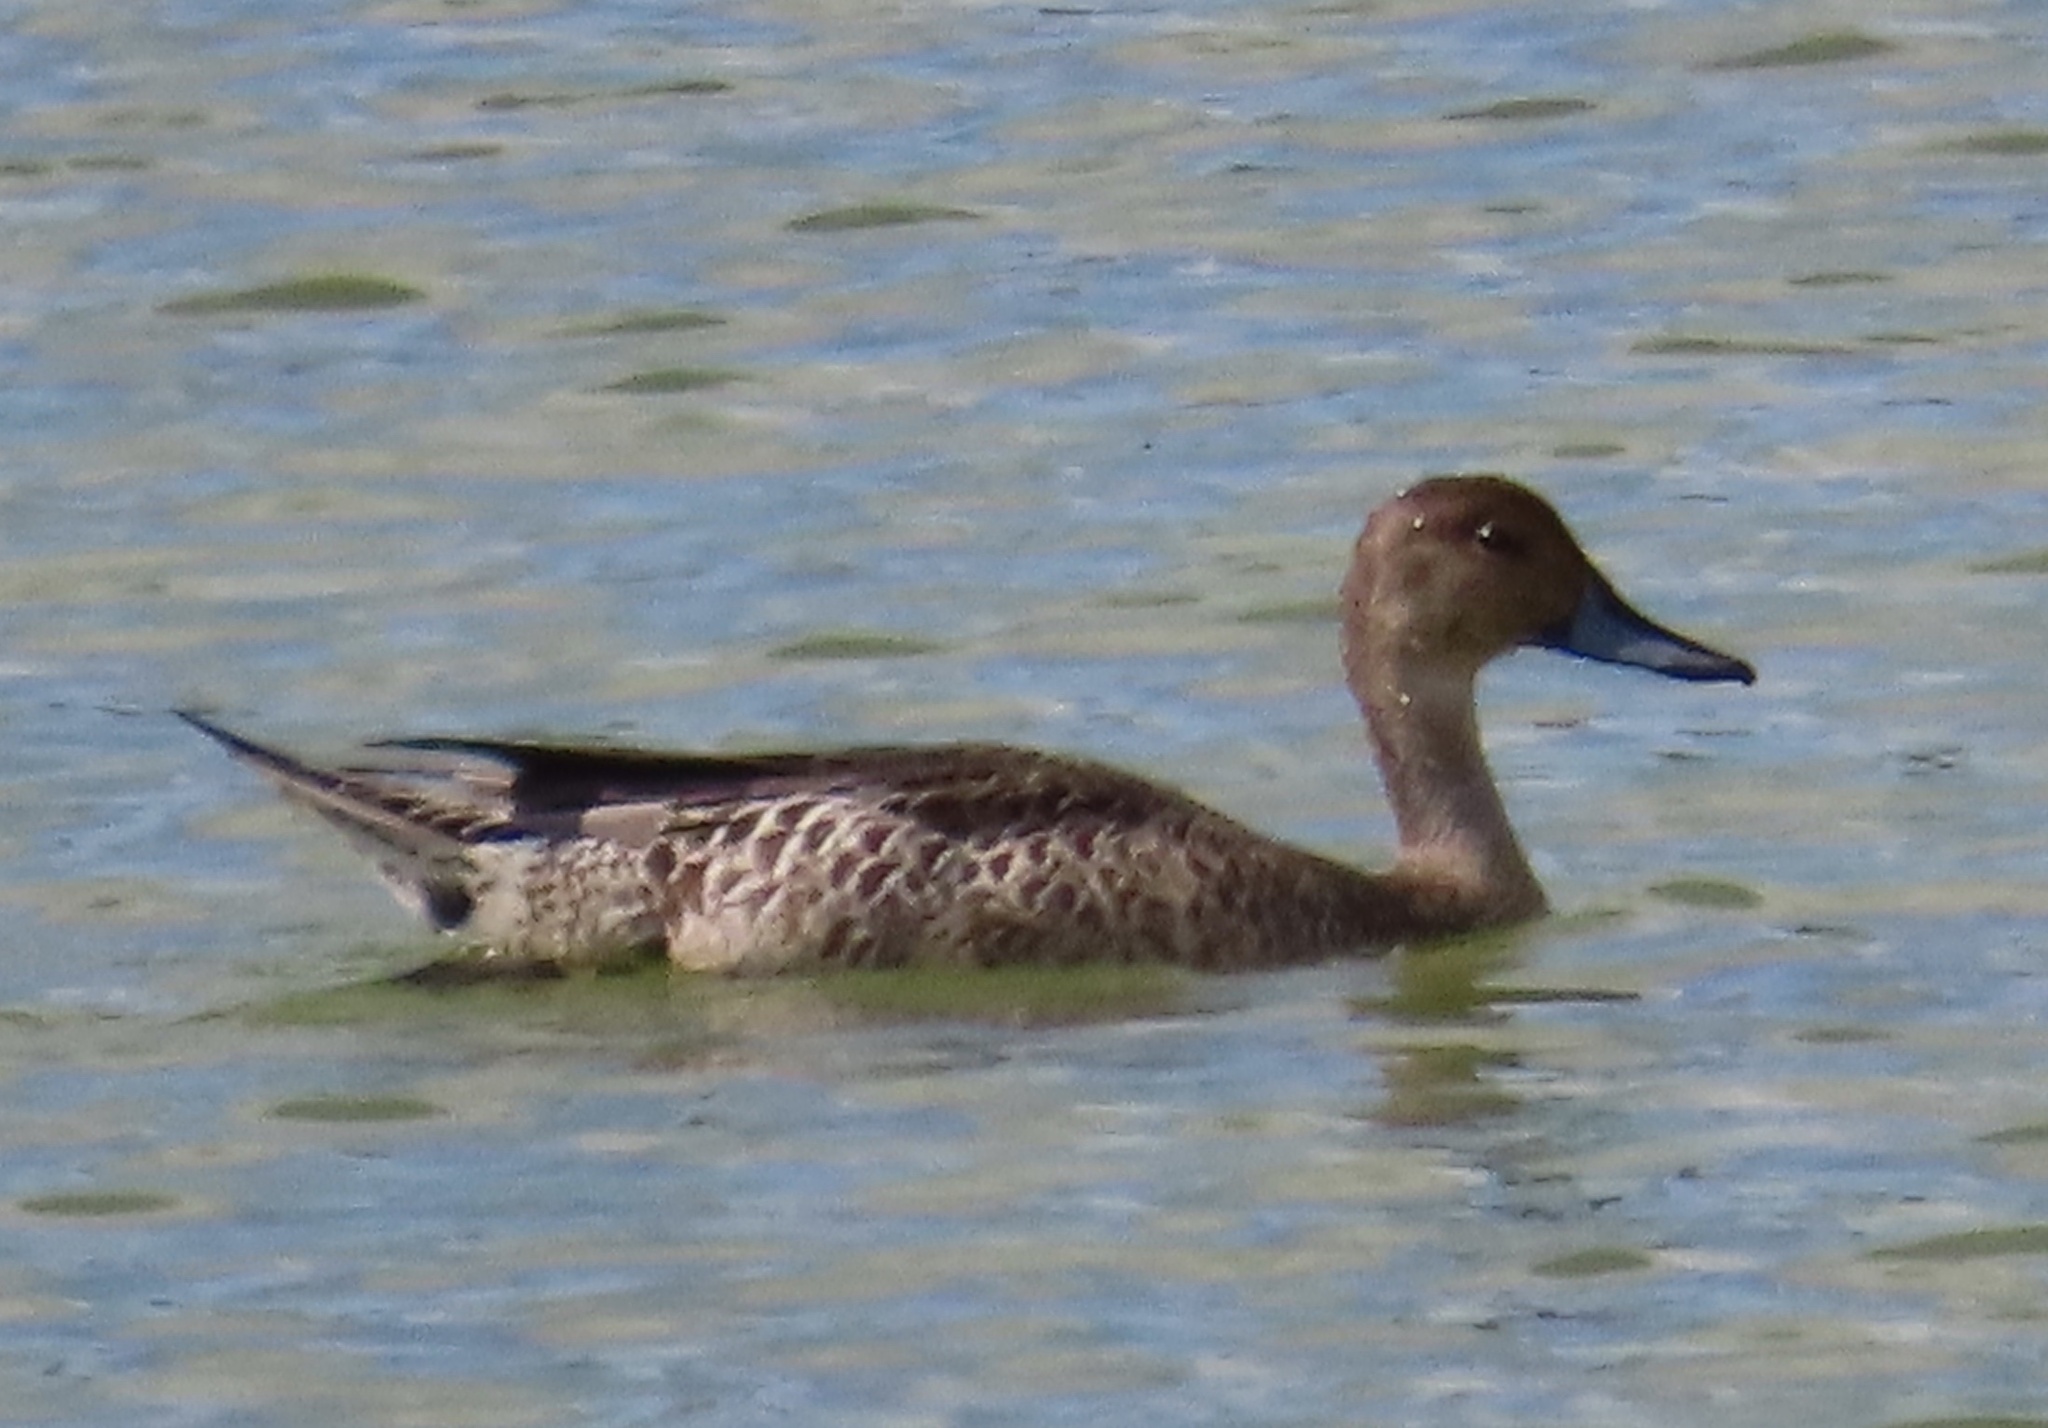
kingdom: Animalia
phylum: Chordata
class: Aves
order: Anseriformes
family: Anatidae
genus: Anas
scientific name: Anas acuta
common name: Northern pintail
